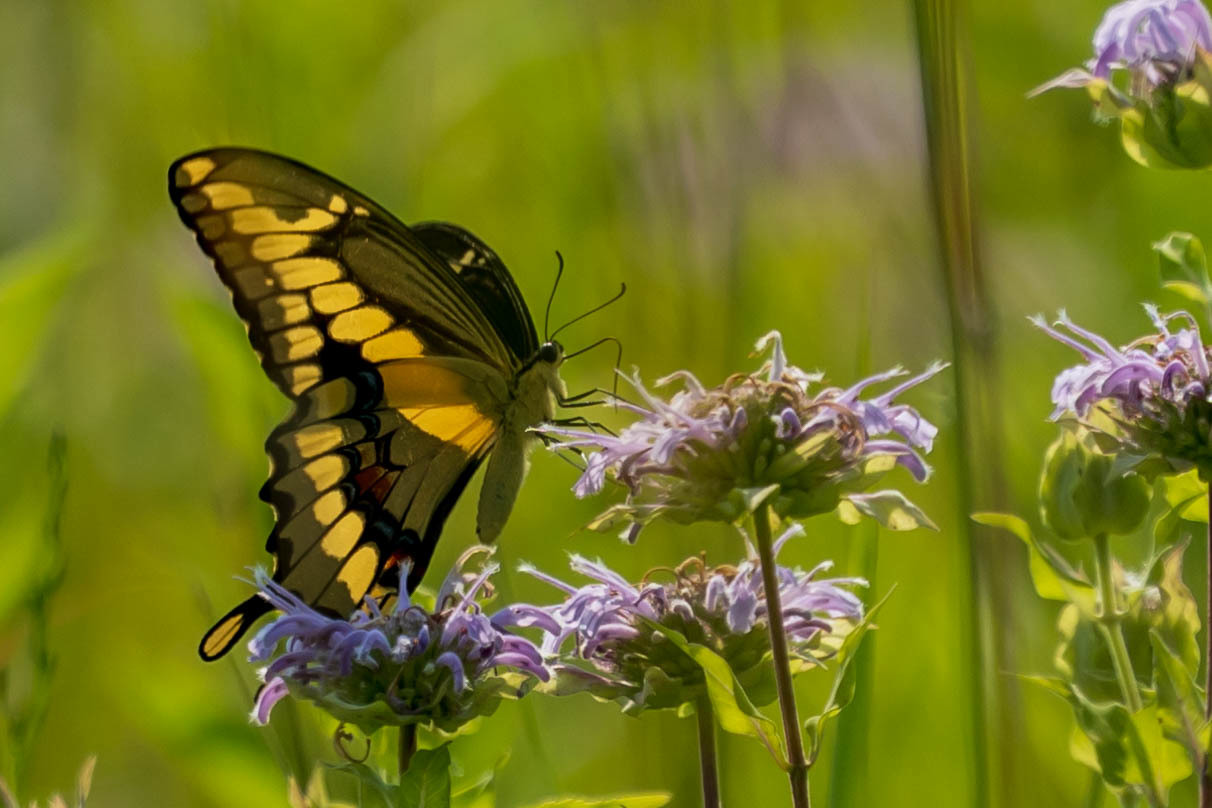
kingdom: Animalia
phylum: Arthropoda
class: Insecta
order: Lepidoptera
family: Papilionidae
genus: Papilio
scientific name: Papilio cresphontes
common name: Giant swallowtail
